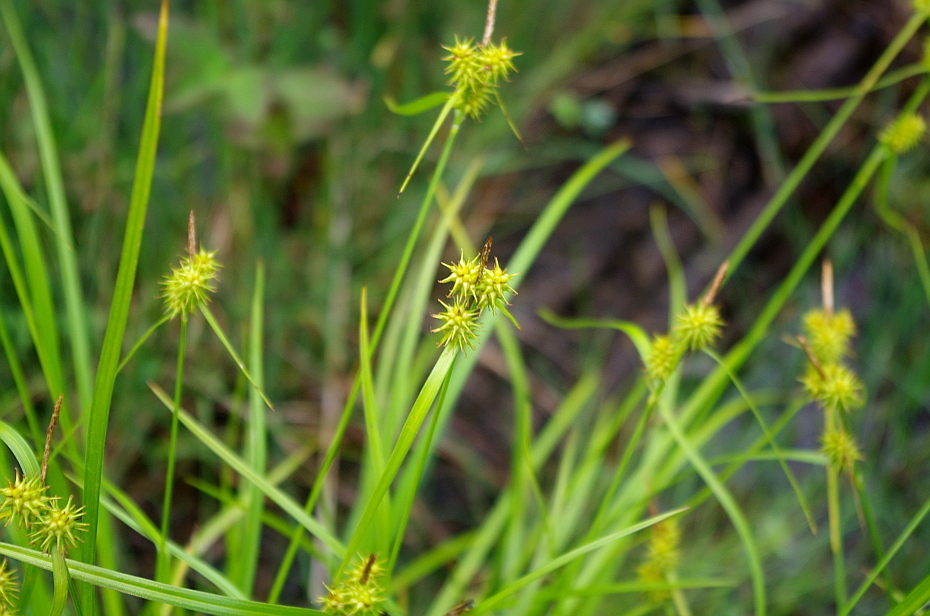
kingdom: Plantae
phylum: Tracheophyta
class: Liliopsida
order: Poales
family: Cyperaceae
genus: Carex
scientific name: Carex flava
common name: Large yellow-sedge
